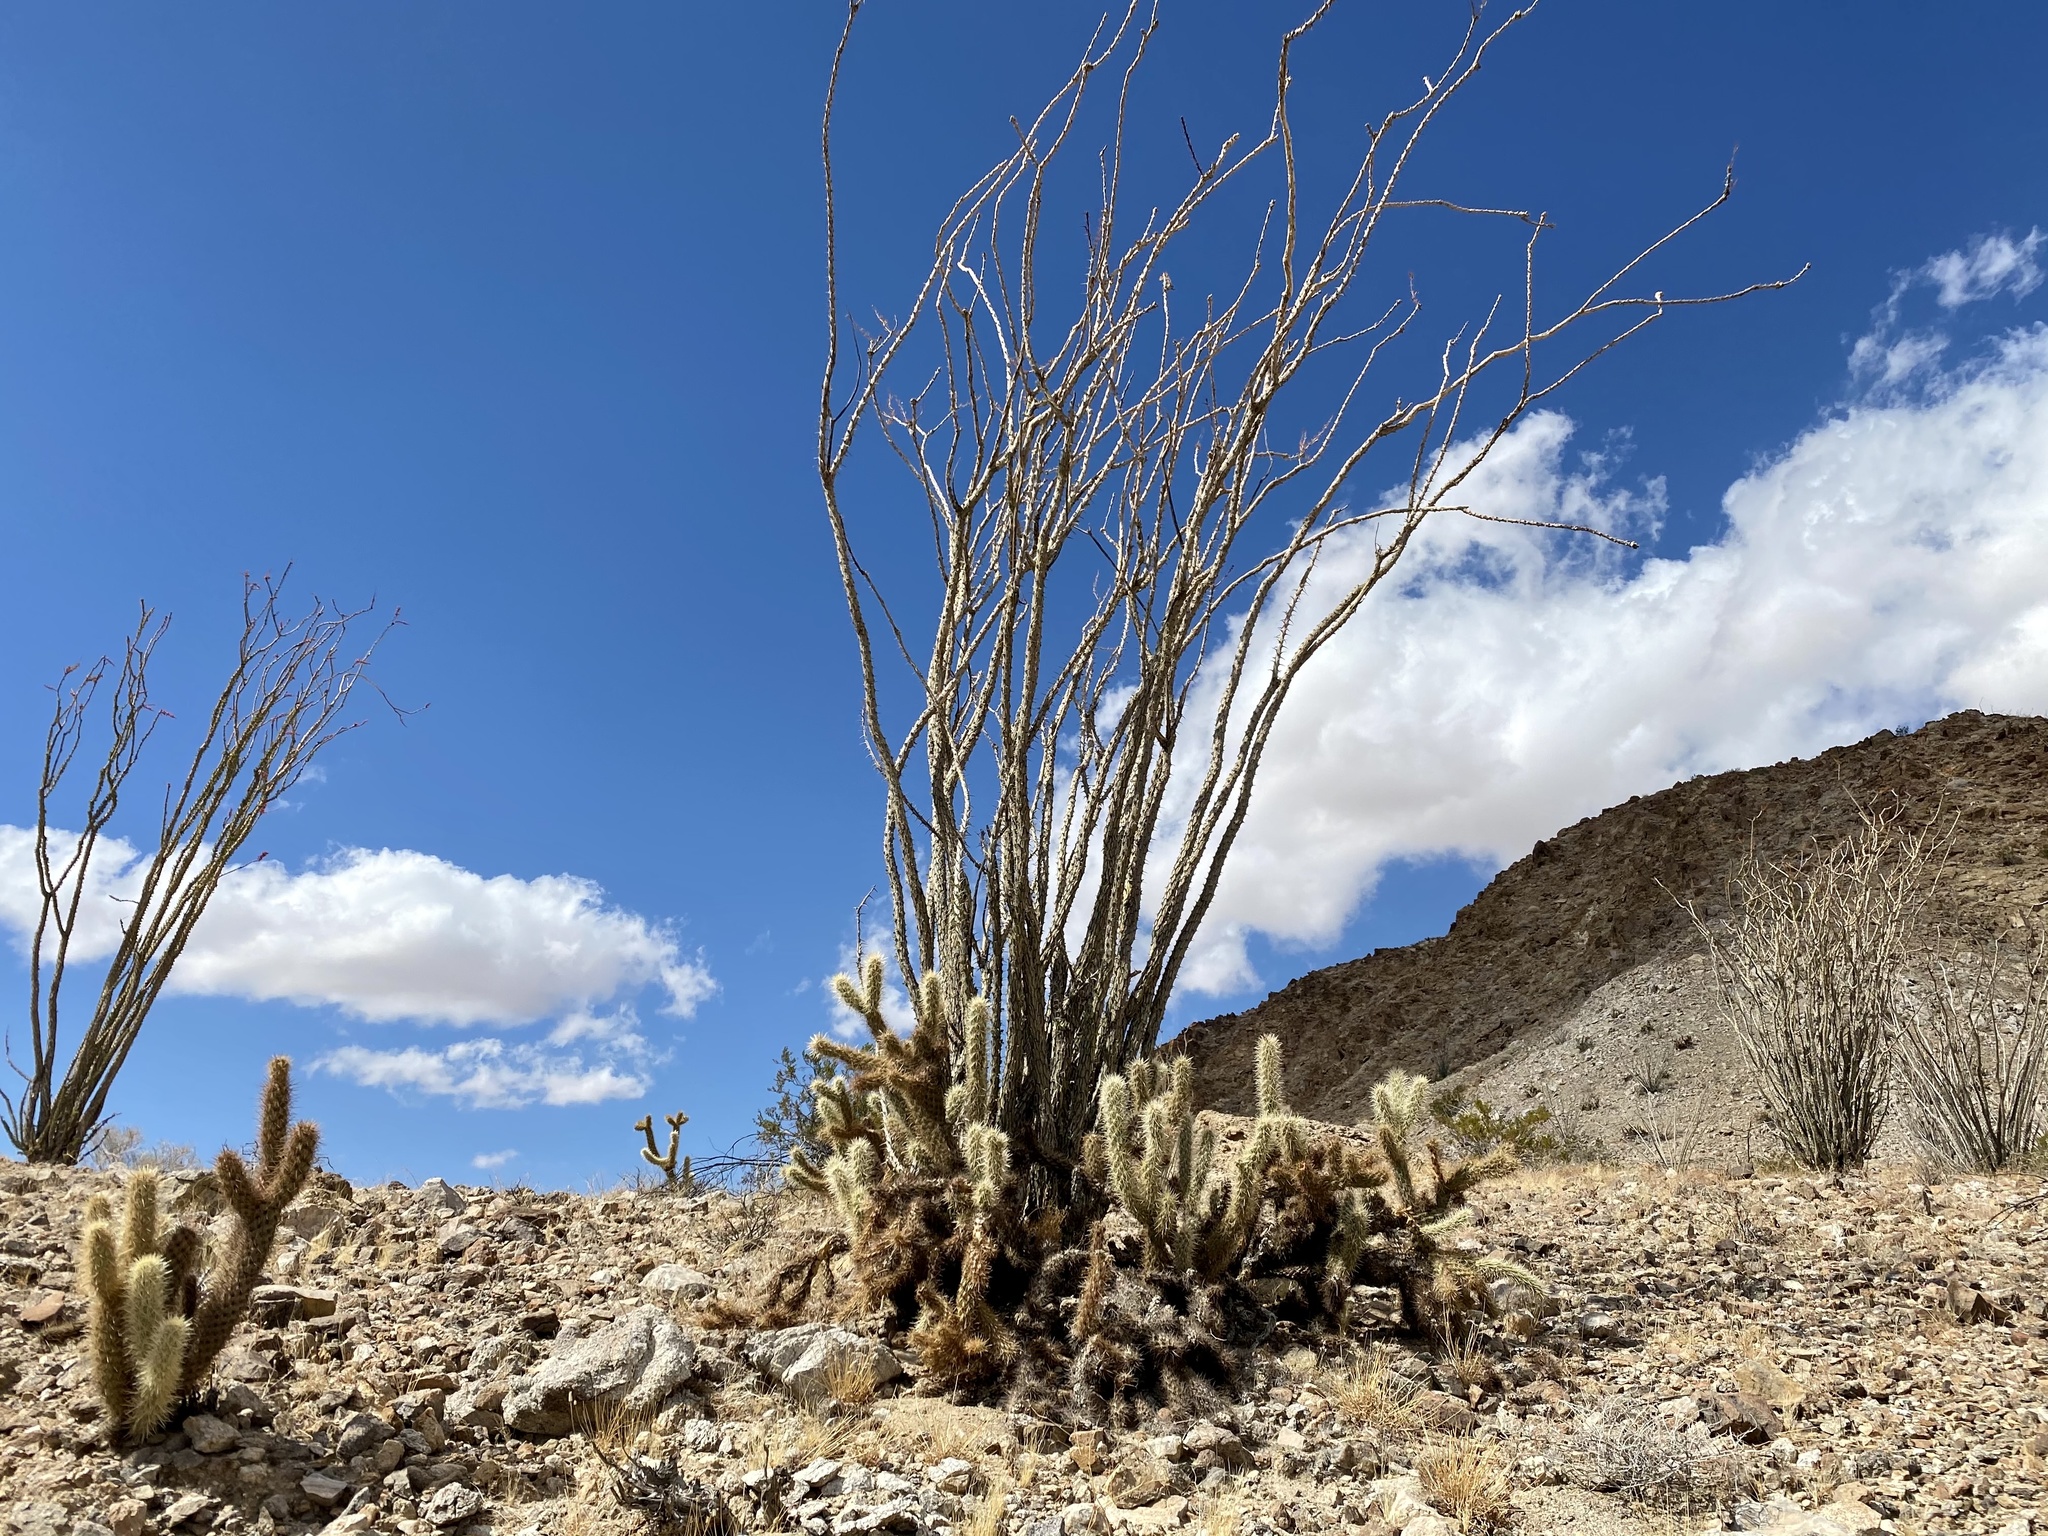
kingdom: Plantae
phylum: Tracheophyta
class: Magnoliopsida
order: Ericales
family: Fouquieriaceae
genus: Fouquieria
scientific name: Fouquieria splendens
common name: Vine-cactus
